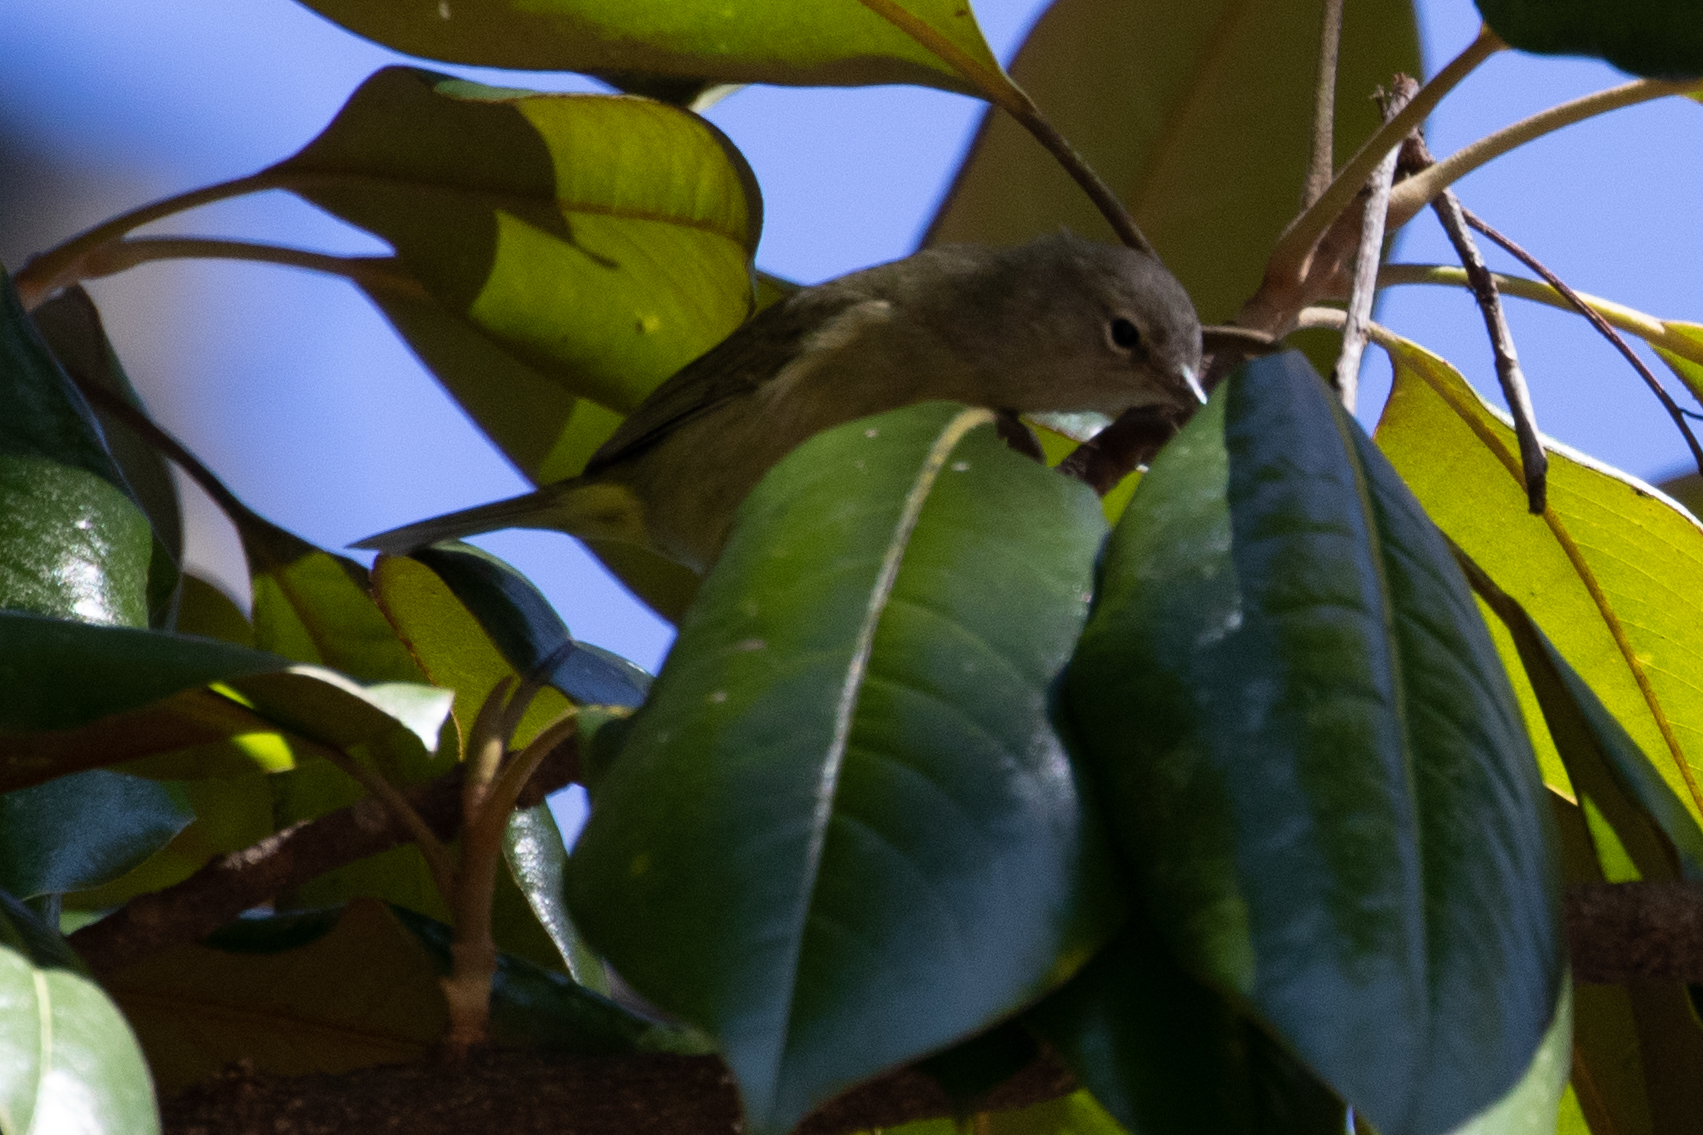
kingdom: Animalia
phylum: Chordata
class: Aves
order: Passeriformes
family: Parulidae
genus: Leiothlypis
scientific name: Leiothlypis celata
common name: Orange-crowned warbler
